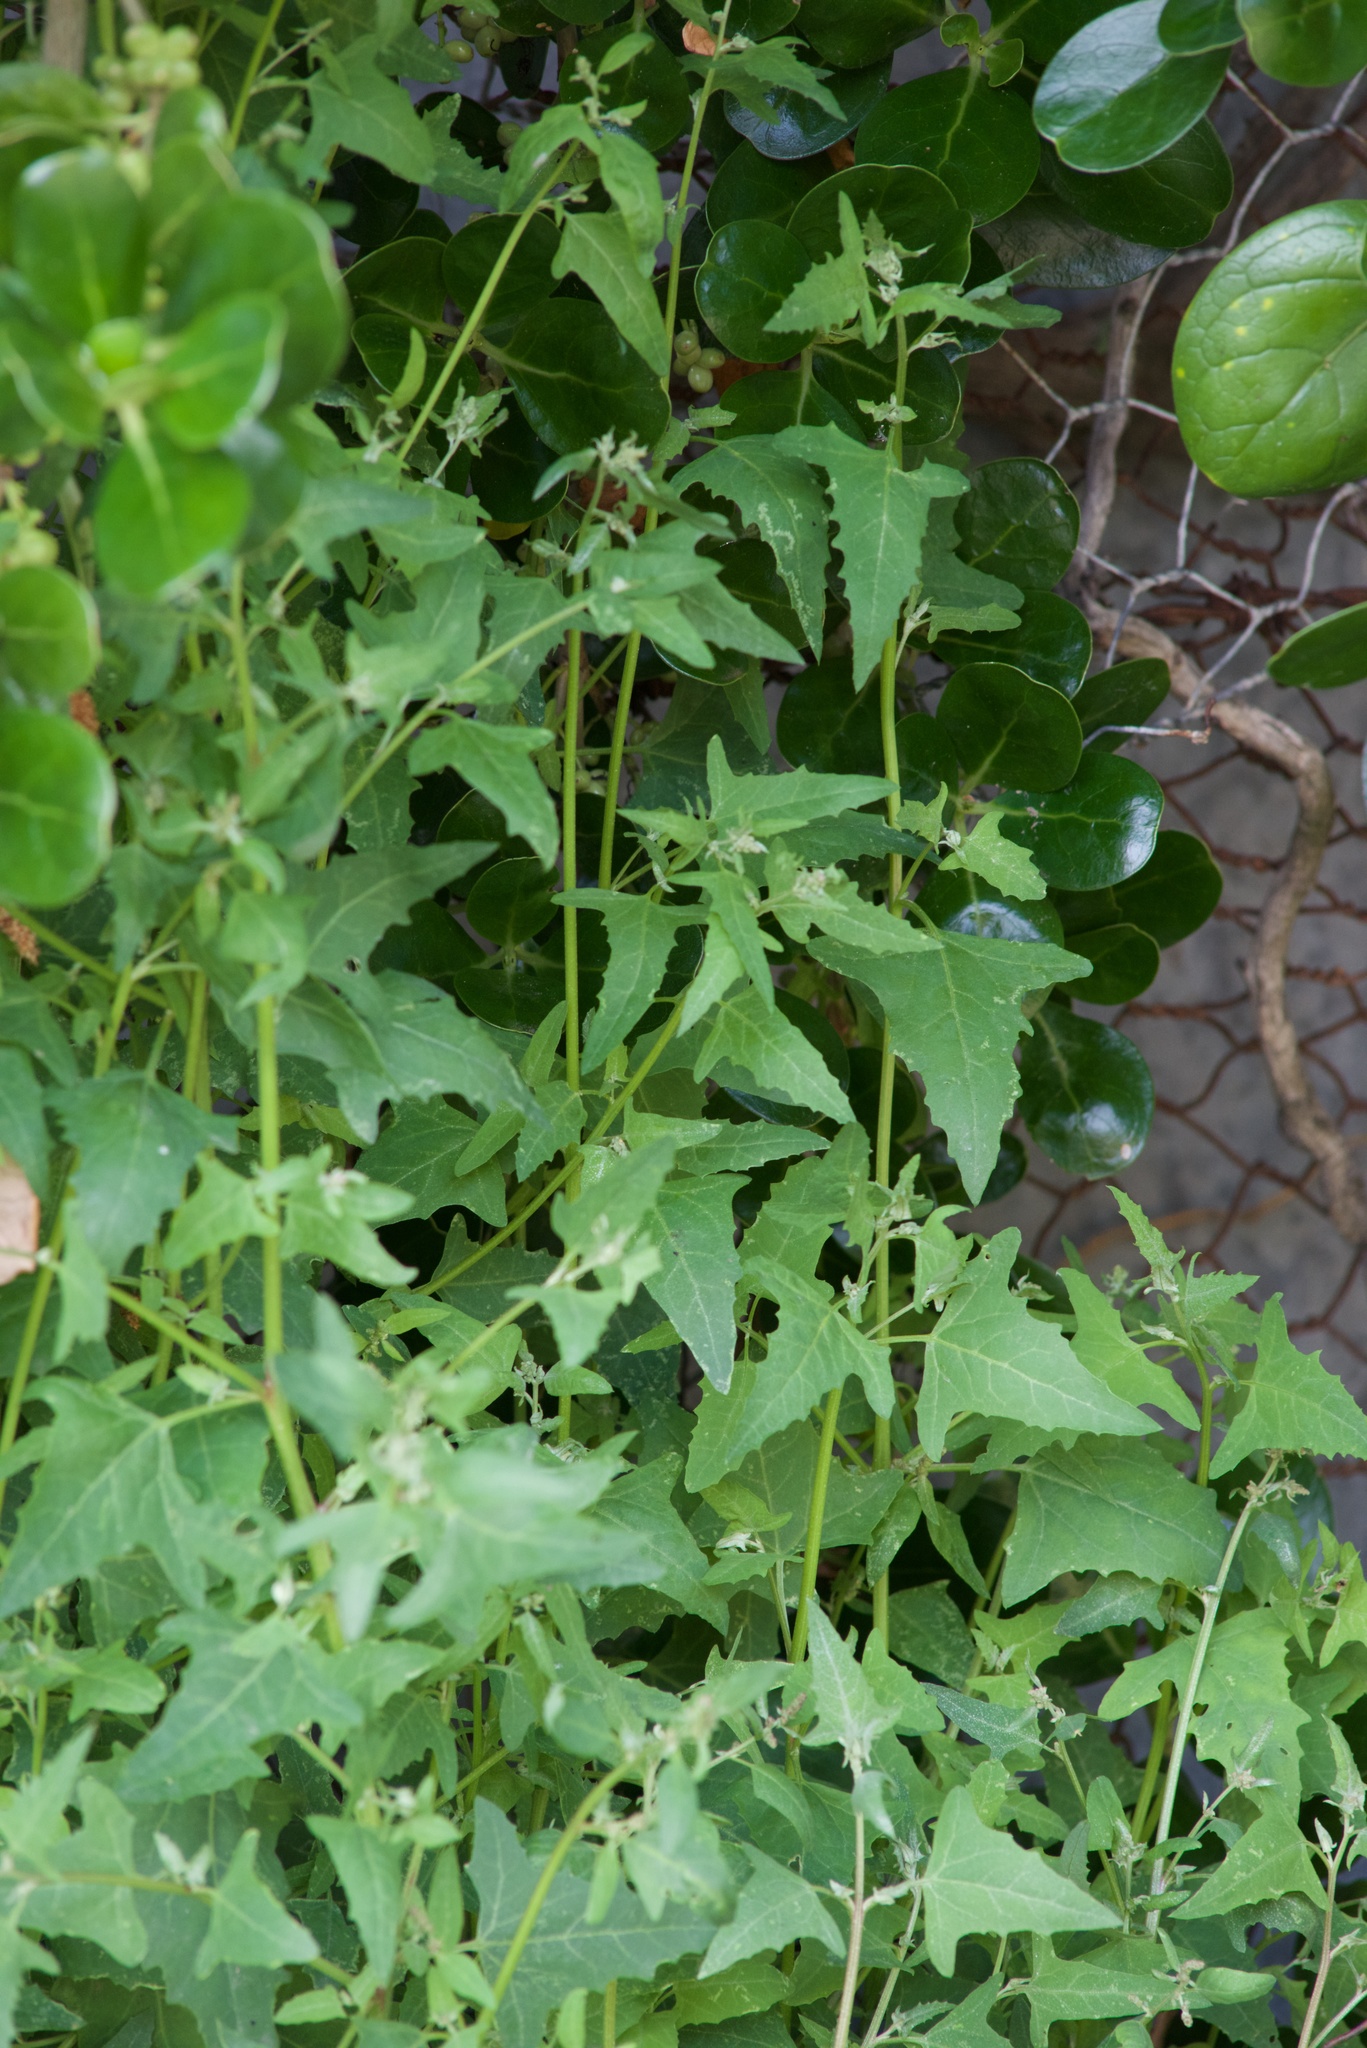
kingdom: Plantae
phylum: Tracheophyta
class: Magnoliopsida
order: Caryophyllales
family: Amaranthaceae
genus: Atriplex
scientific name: Atriplex prostrata
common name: Spear-leaved orache
